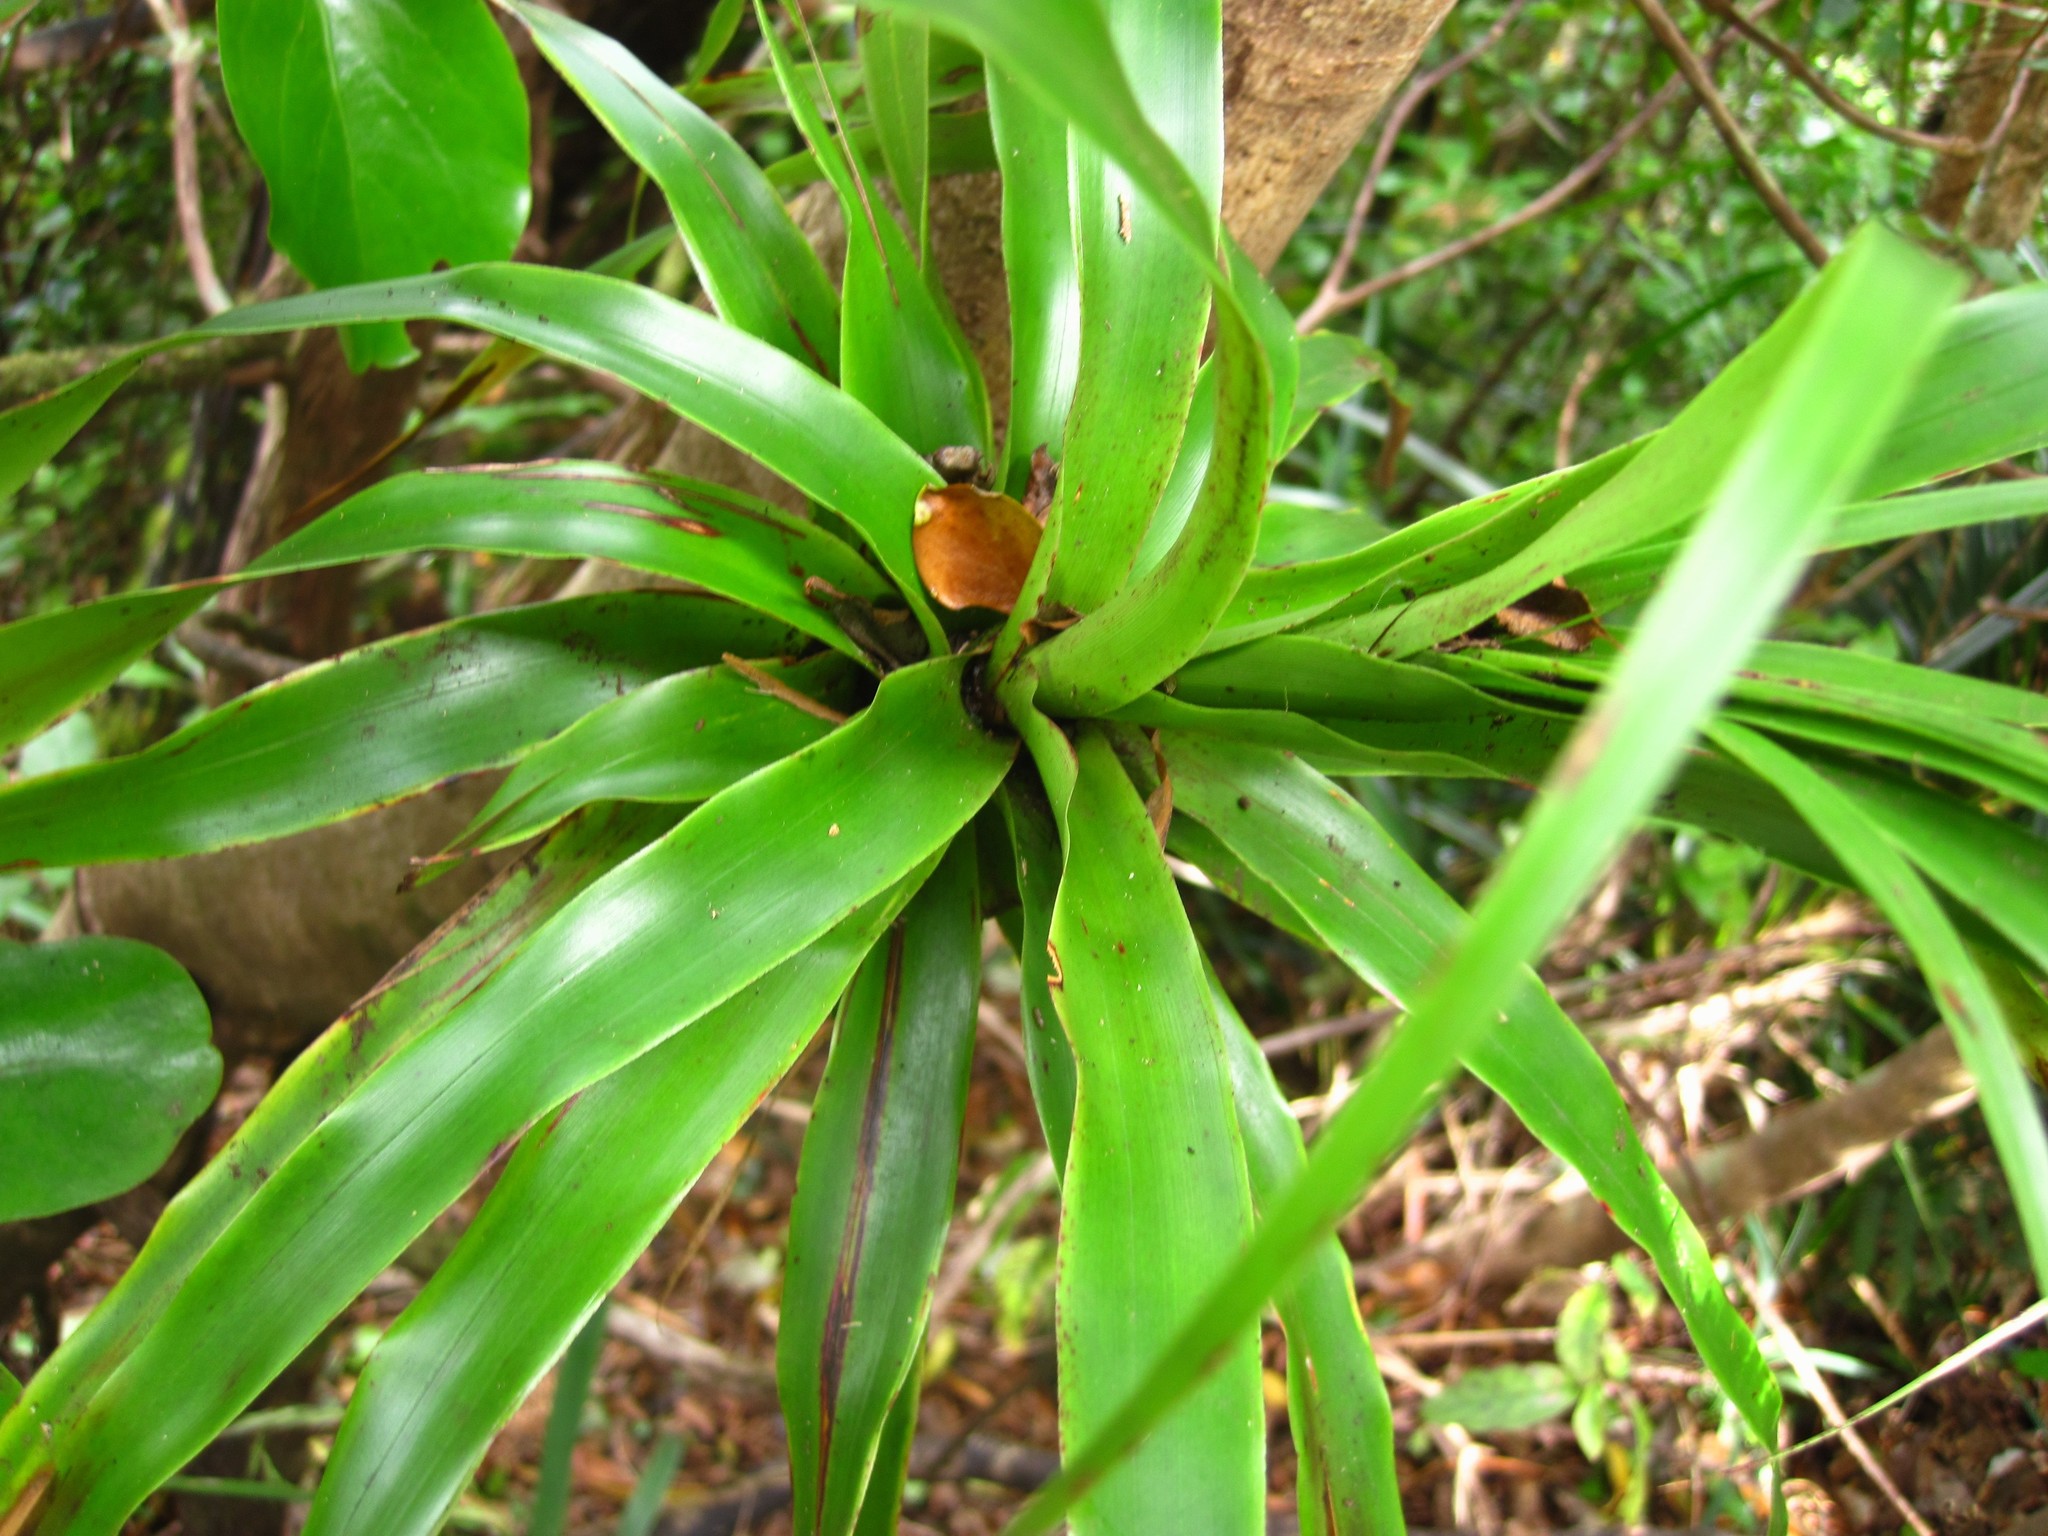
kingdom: Plantae
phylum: Tracheophyta
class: Magnoliopsida
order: Ericales
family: Ericaceae
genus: Dracophyllum
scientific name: Dracophyllum latifolium
